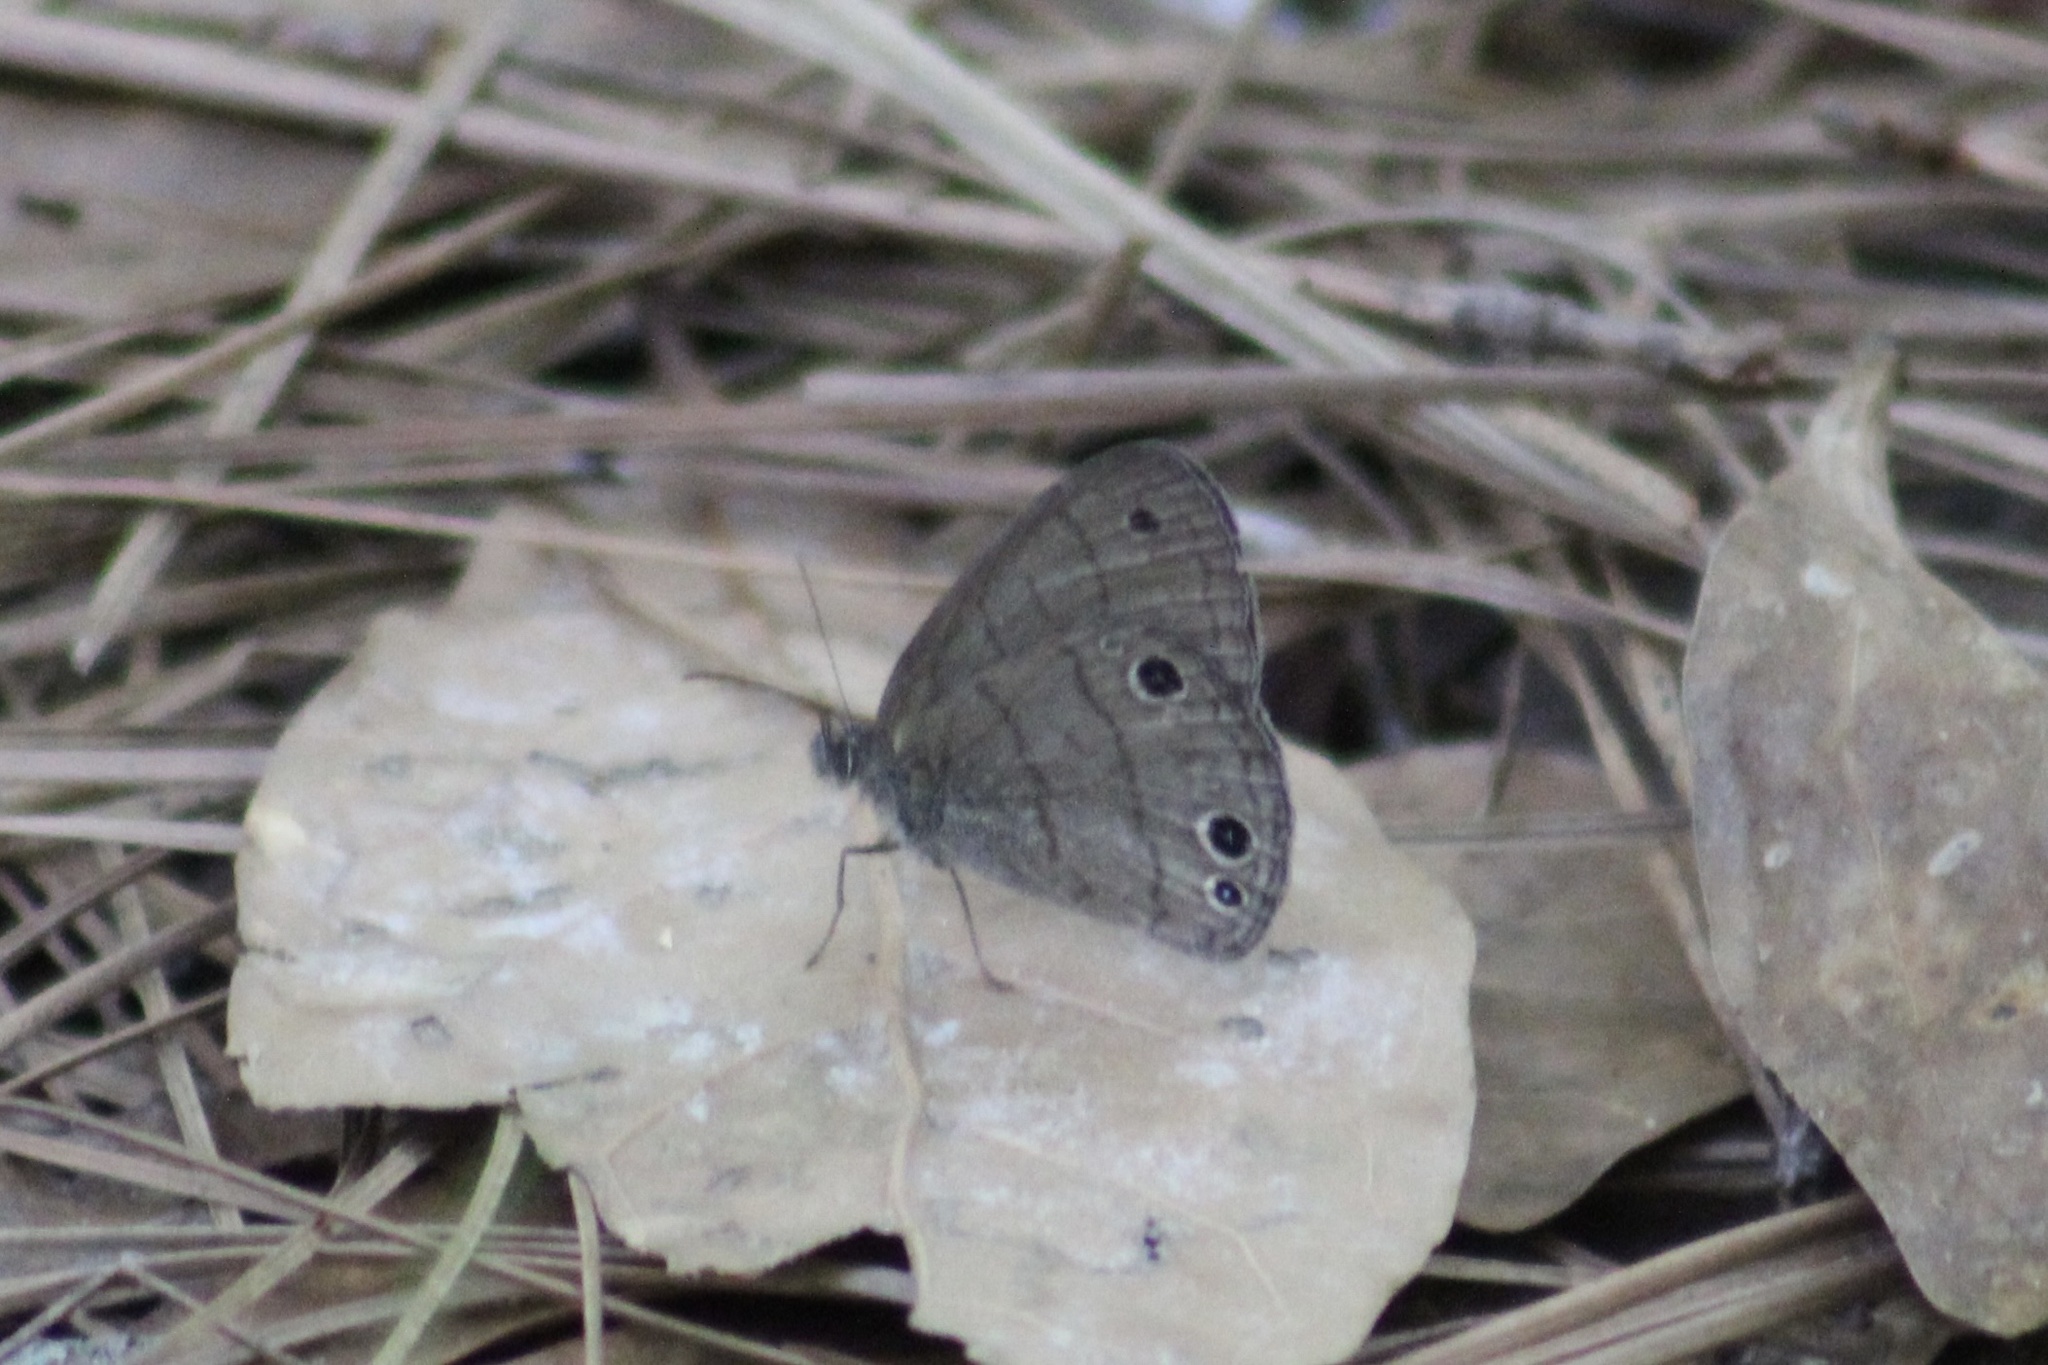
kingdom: Animalia
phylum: Arthropoda
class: Insecta
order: Lepidoptera
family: Nymphalidae
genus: Hermeuptychia
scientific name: Hermeuptychia hermes
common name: Hermes satyr
